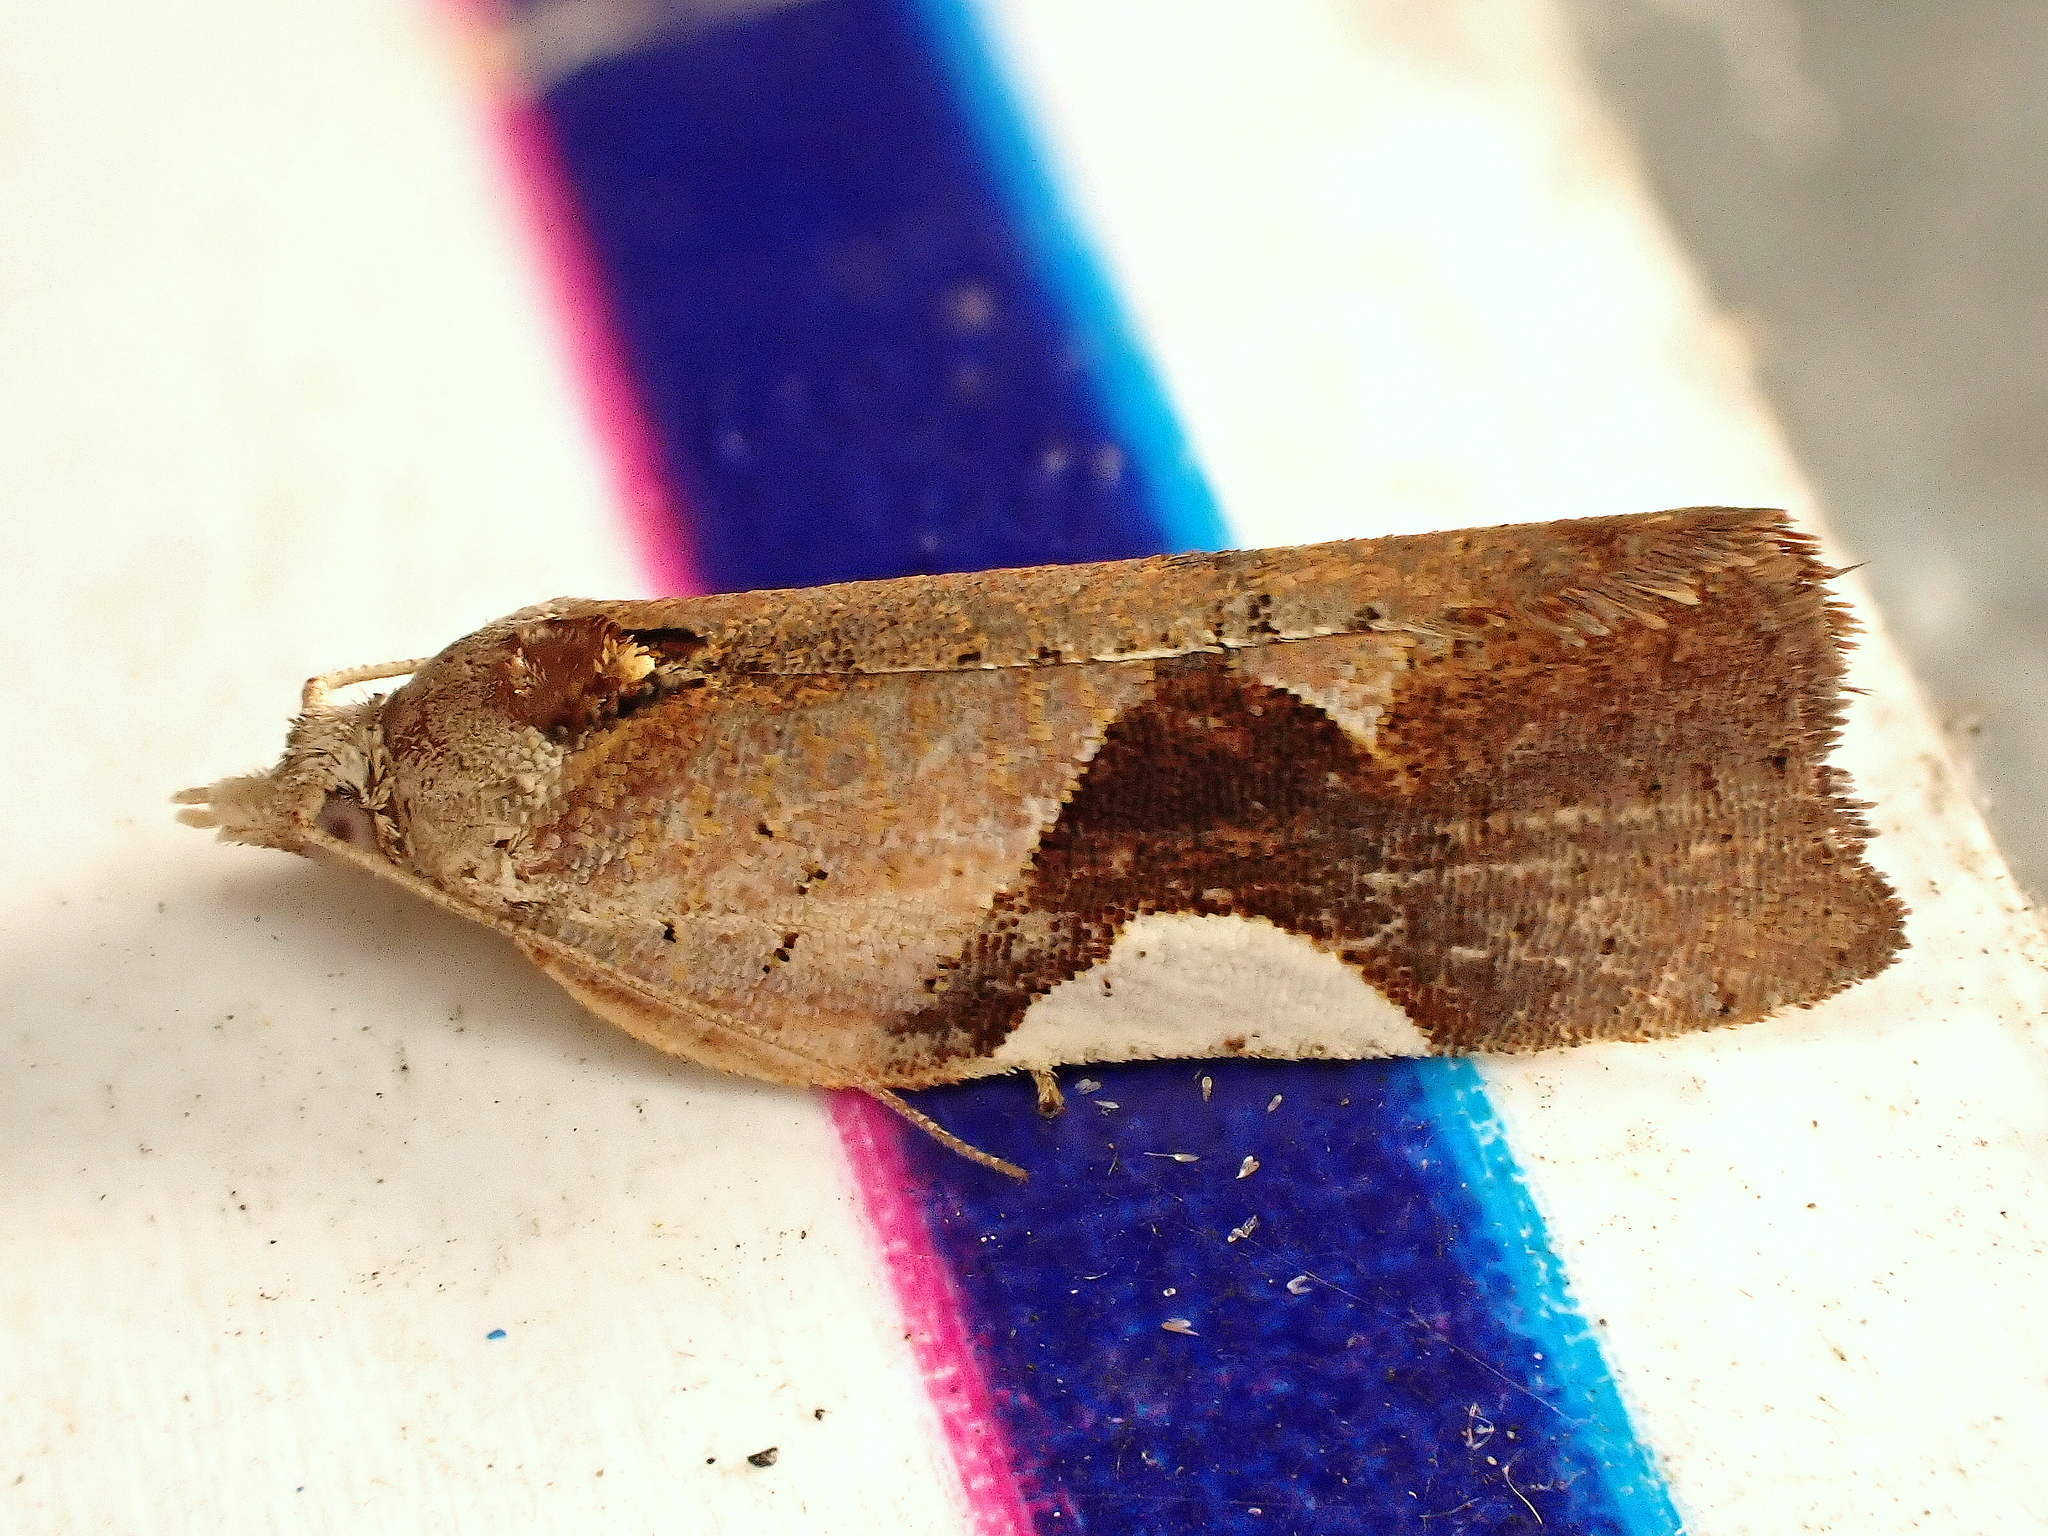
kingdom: Animalia
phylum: Arthropoda
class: Insecta
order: Lepidoptera
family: Tortricidae
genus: Pyrgotis
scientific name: Pyrgotis plagiatana
